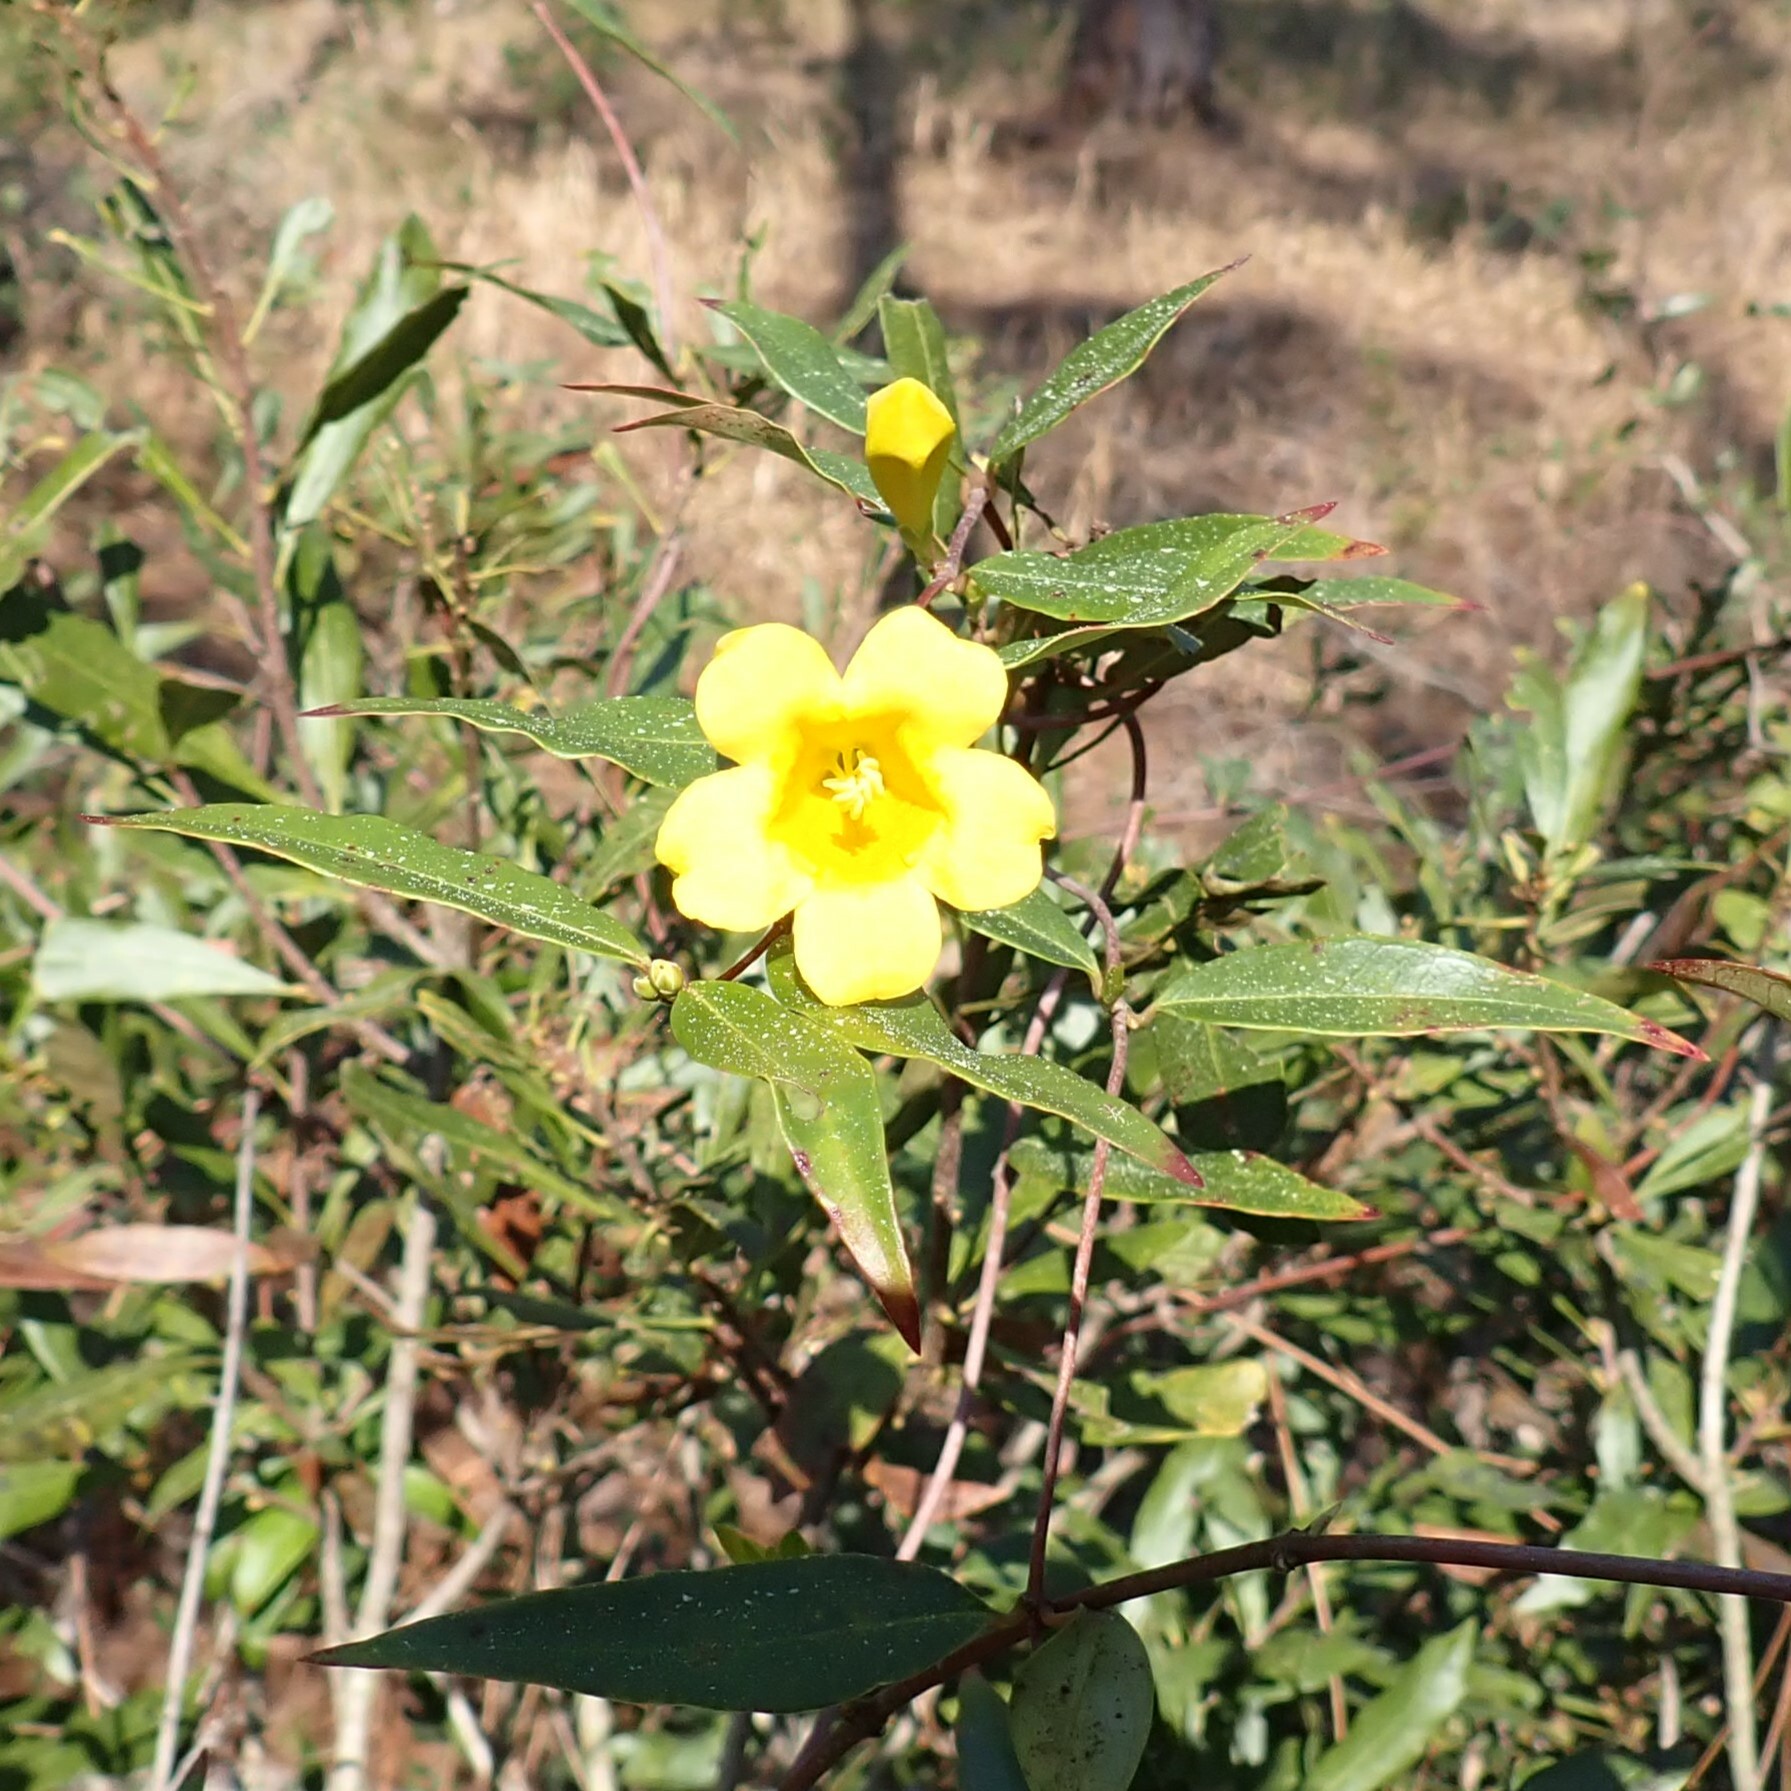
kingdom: Plantae
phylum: Tracheophyta
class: Magnoliopsida
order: Gentianales
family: Gelsemiaceae
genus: Gelsemium
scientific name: Gelsemium sempervirens
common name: Carolina-jasmine
